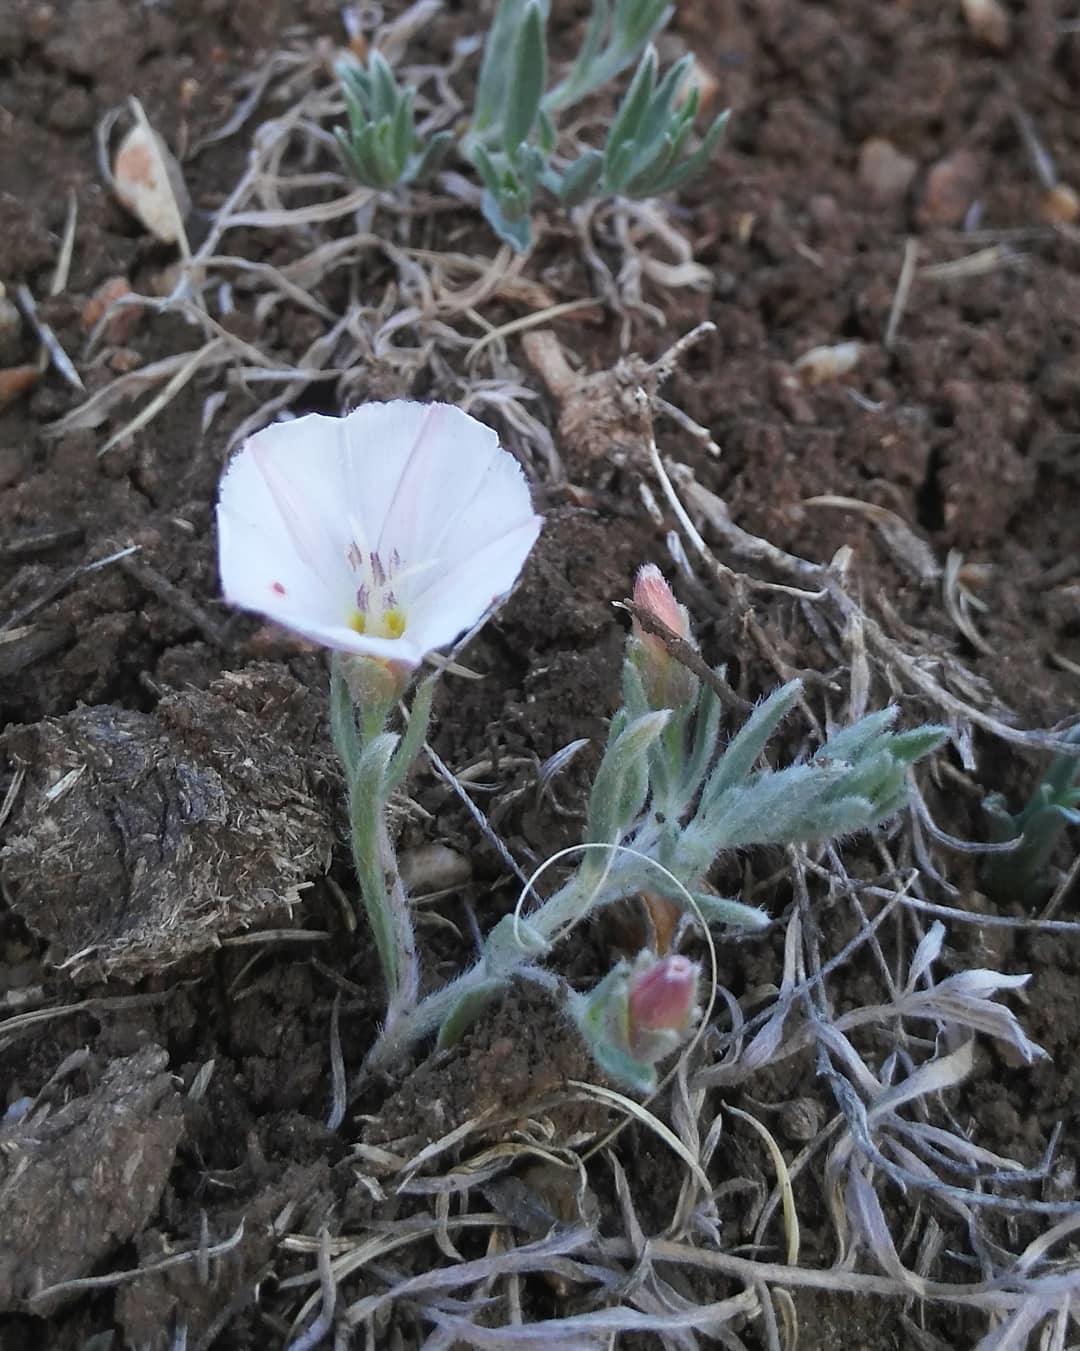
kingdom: Plantae
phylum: Tracheophyta
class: Magnoliopsida
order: Solanales
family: Convolvulaceae
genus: Convolvulus
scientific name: Convolvulus ammannii
